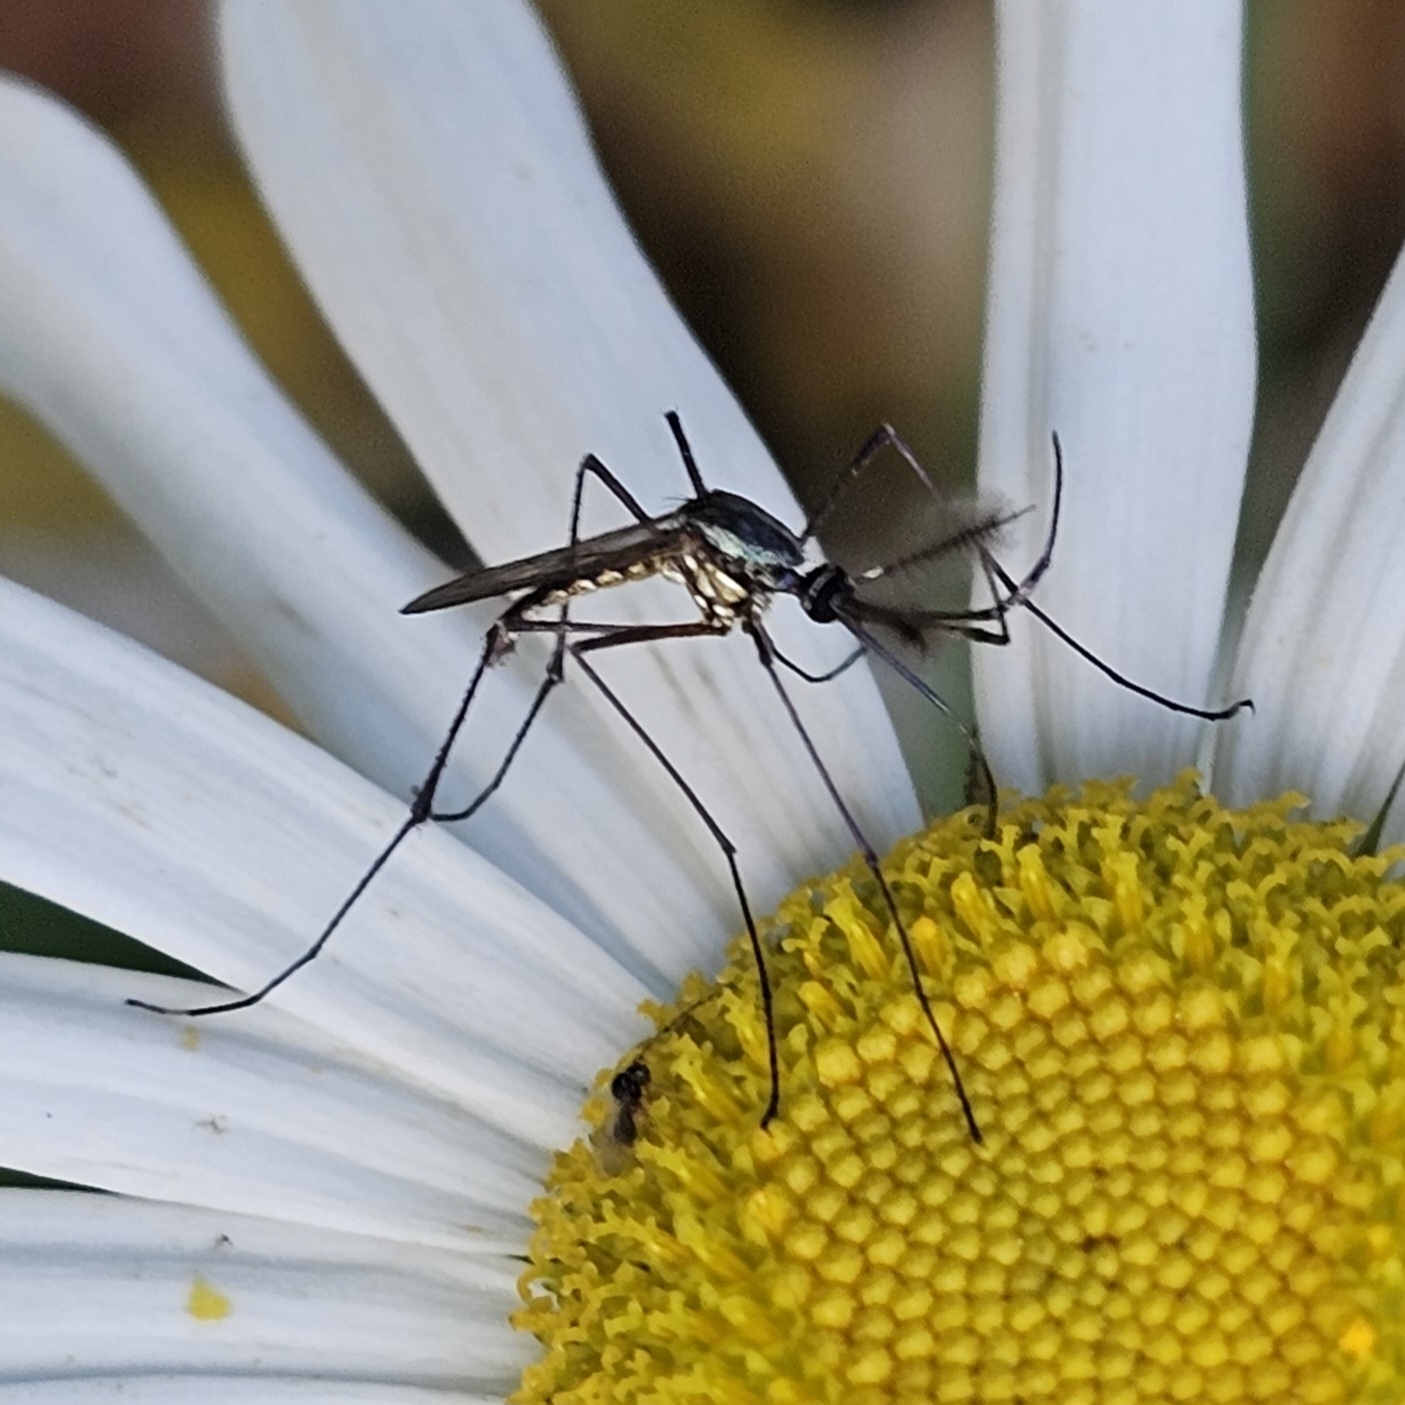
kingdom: Animalia
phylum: Arthropoda
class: Insecta
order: Diptera
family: Culicidae
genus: Toxorhynchites
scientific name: Toxorhynchites rutilus
